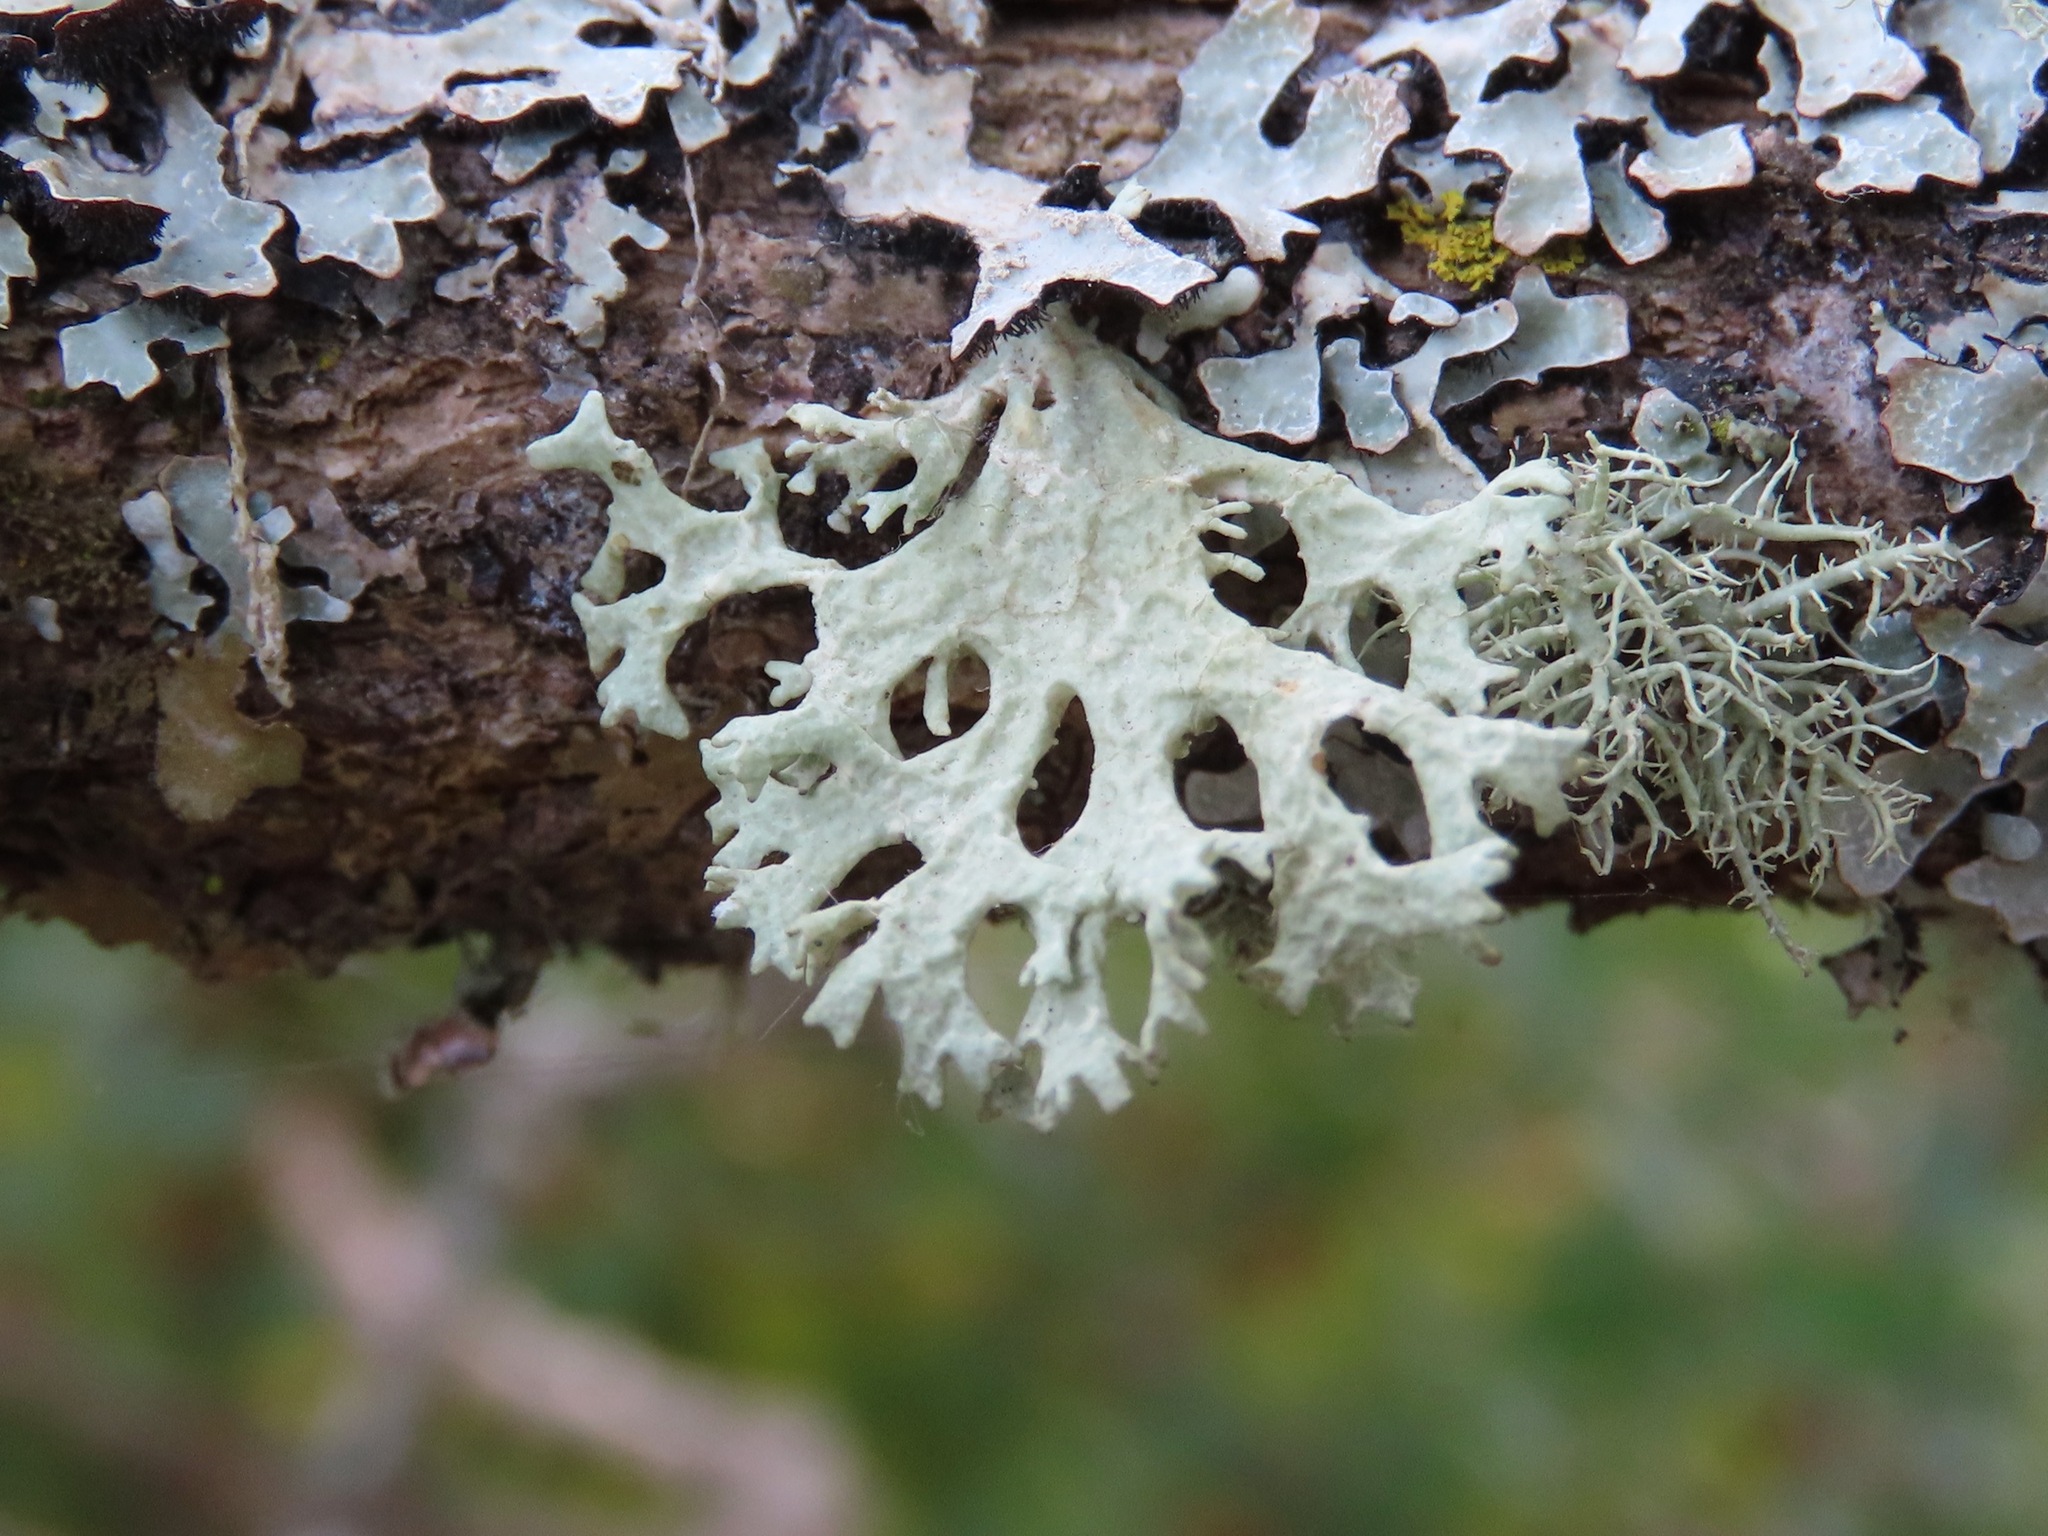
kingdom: Fungi
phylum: Ascomycota
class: Lecanoromycetes
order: Lecanorales
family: Parmeliaceae
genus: Evernia
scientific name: Evernia prunastri
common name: Oak moss
